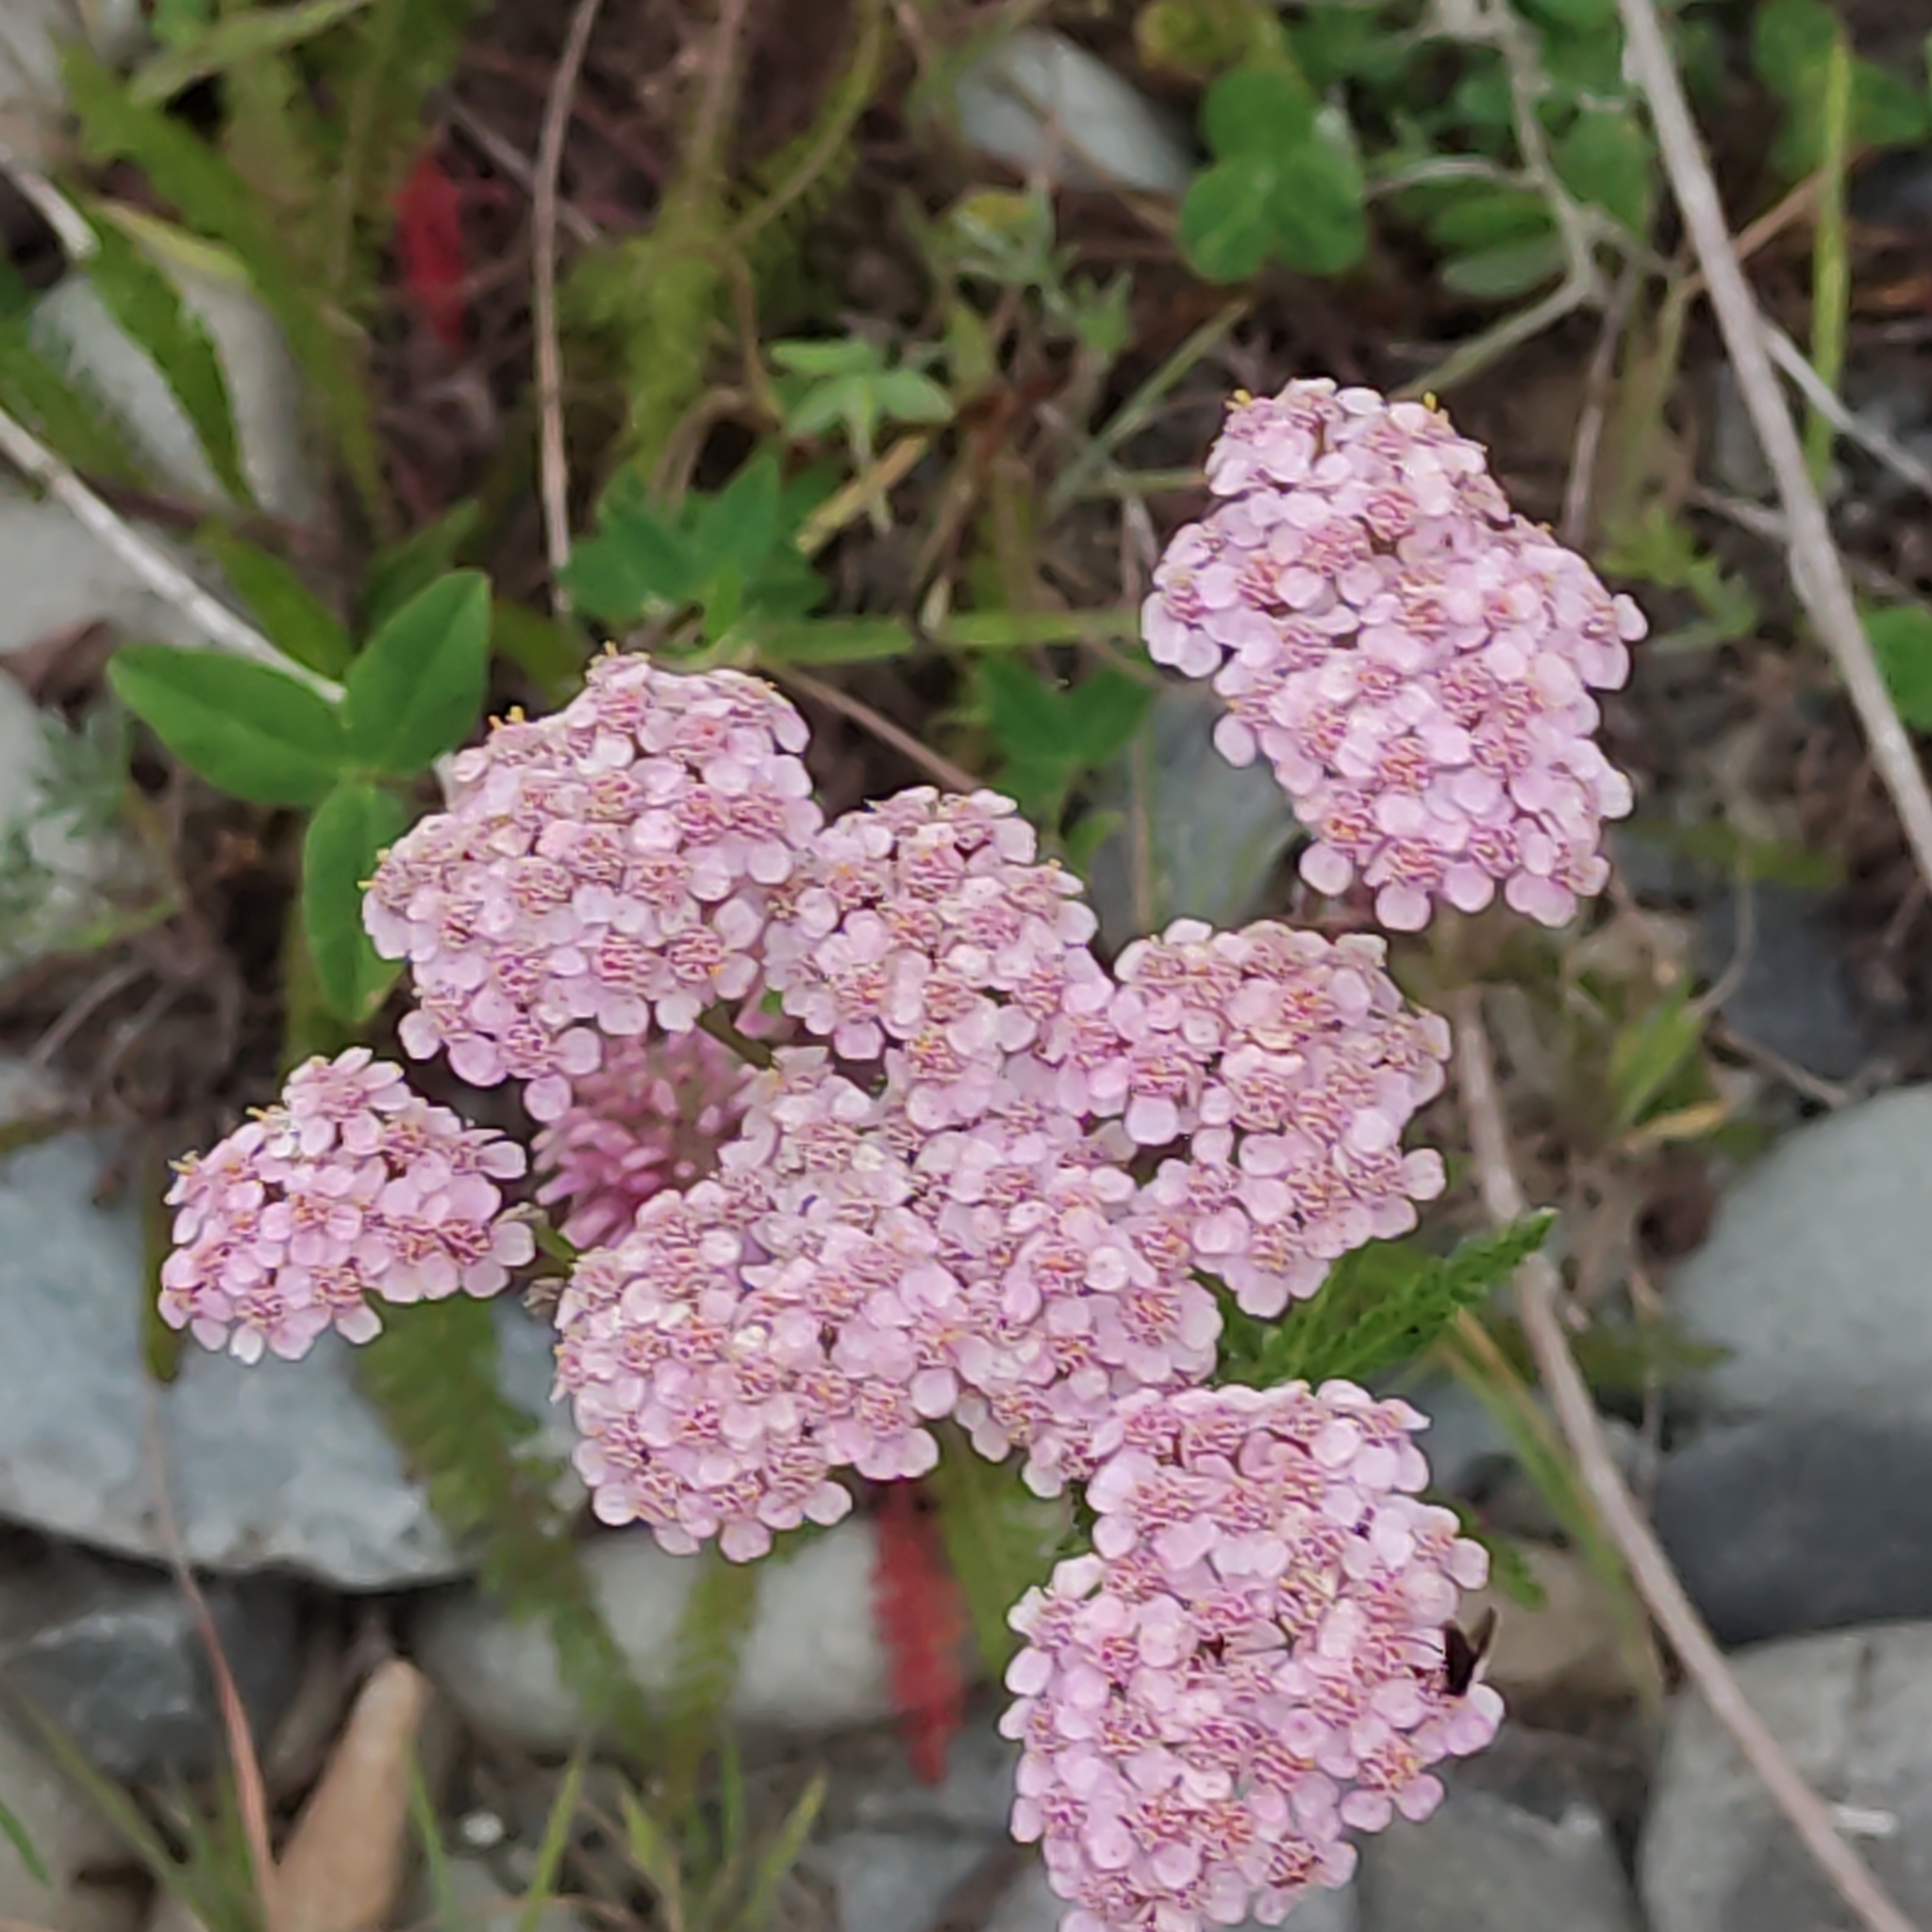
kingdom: Plantae
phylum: Tracheophyta
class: Magnoliopsida
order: Asterales
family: Asteraceae
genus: Achillea
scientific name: Achillea millefolium
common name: Yarrow
